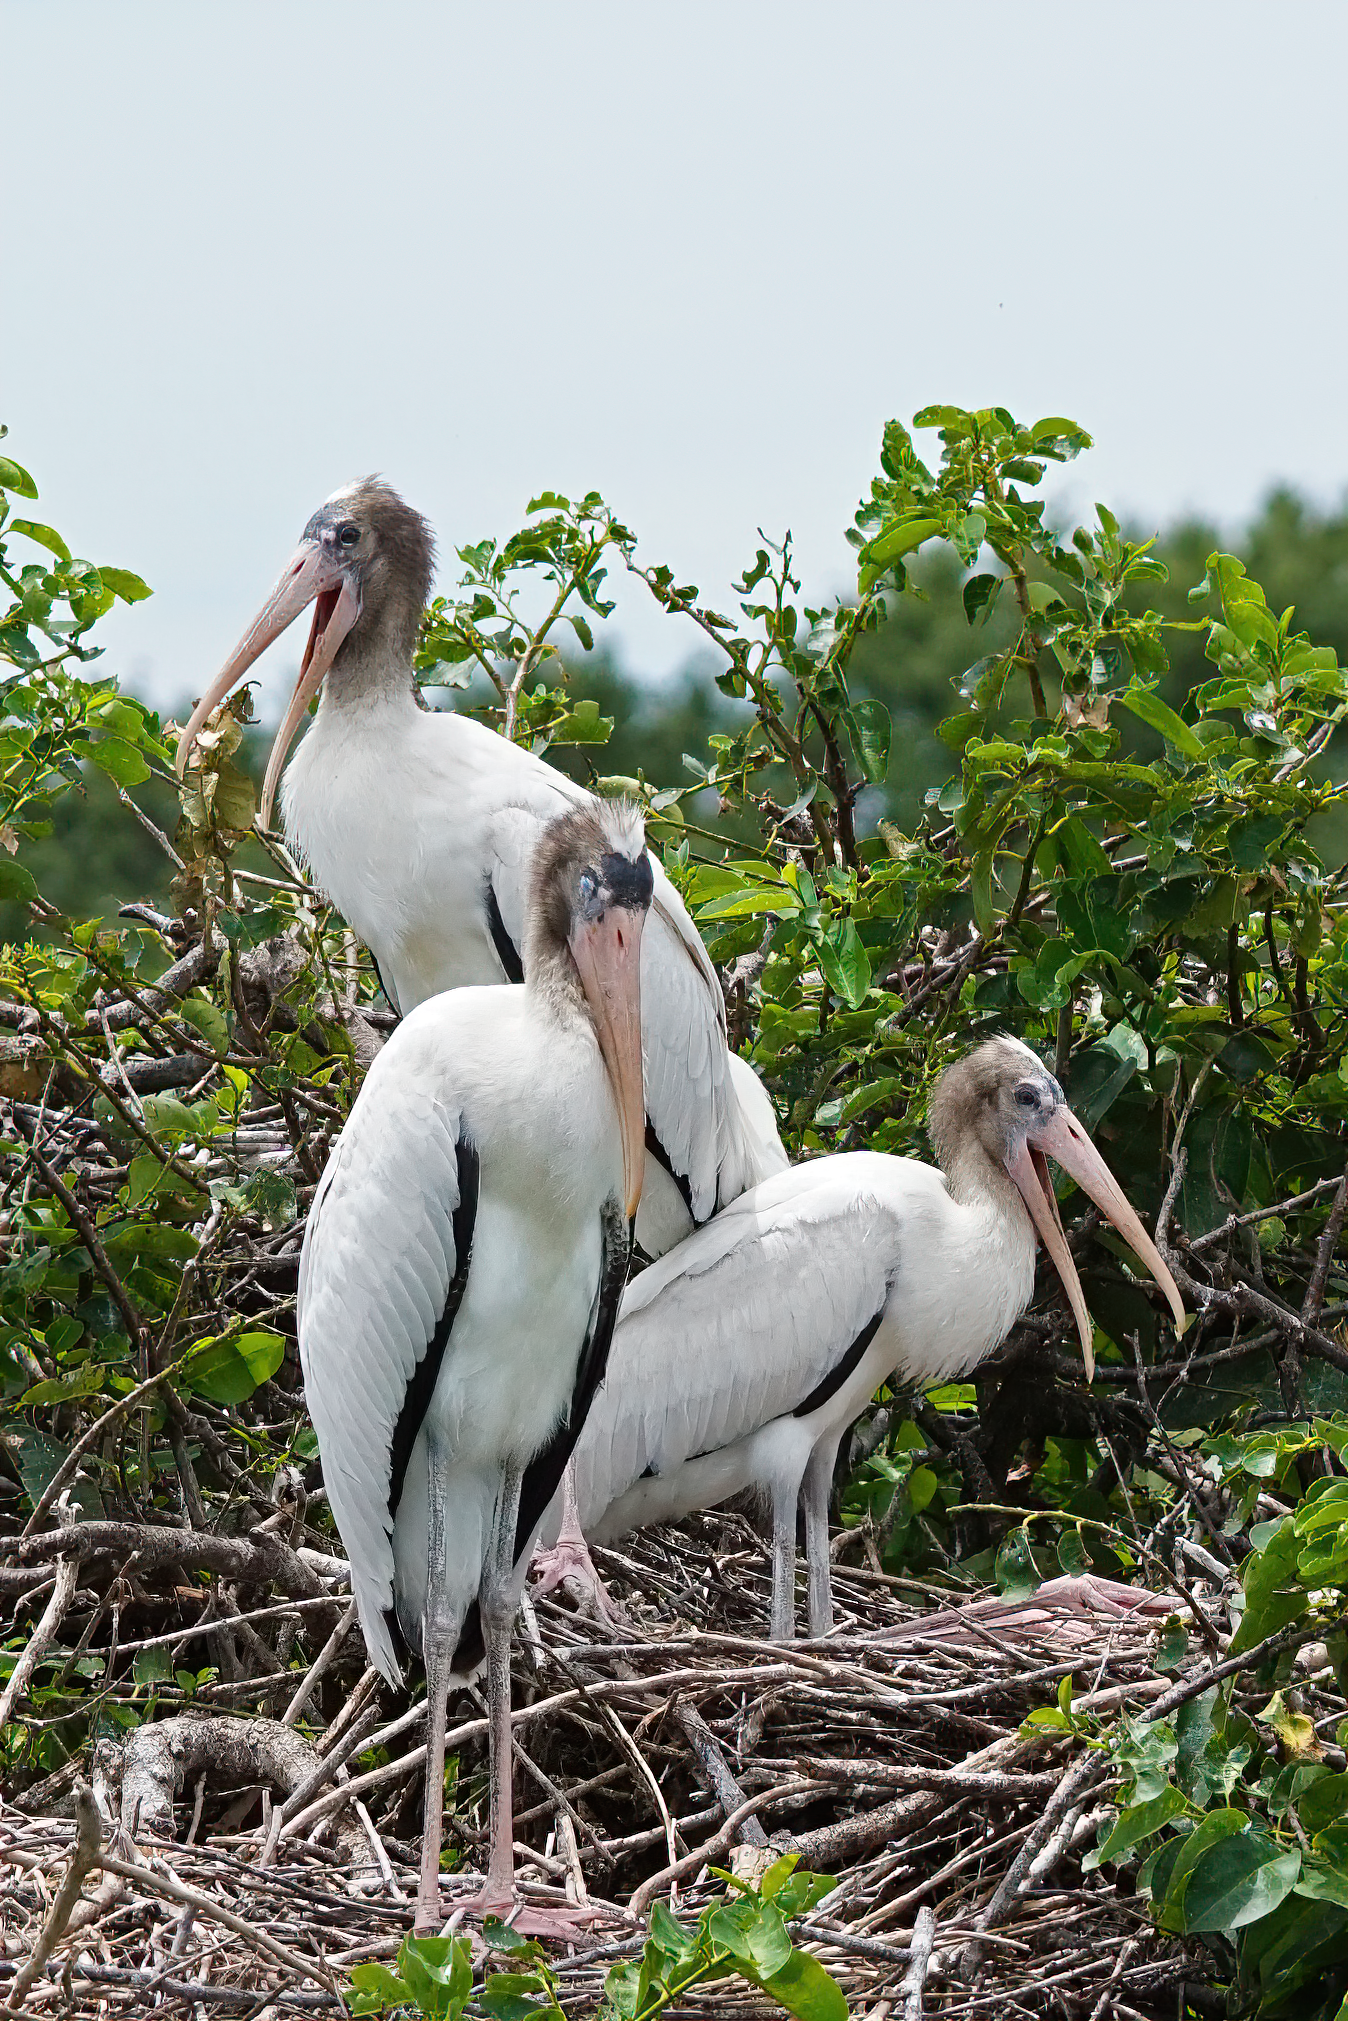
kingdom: Animalia
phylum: Chordata
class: Aves
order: Ciconiiformes
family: Ciconiidae
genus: Mycteria
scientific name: Mycteria americana
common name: Wood stork
